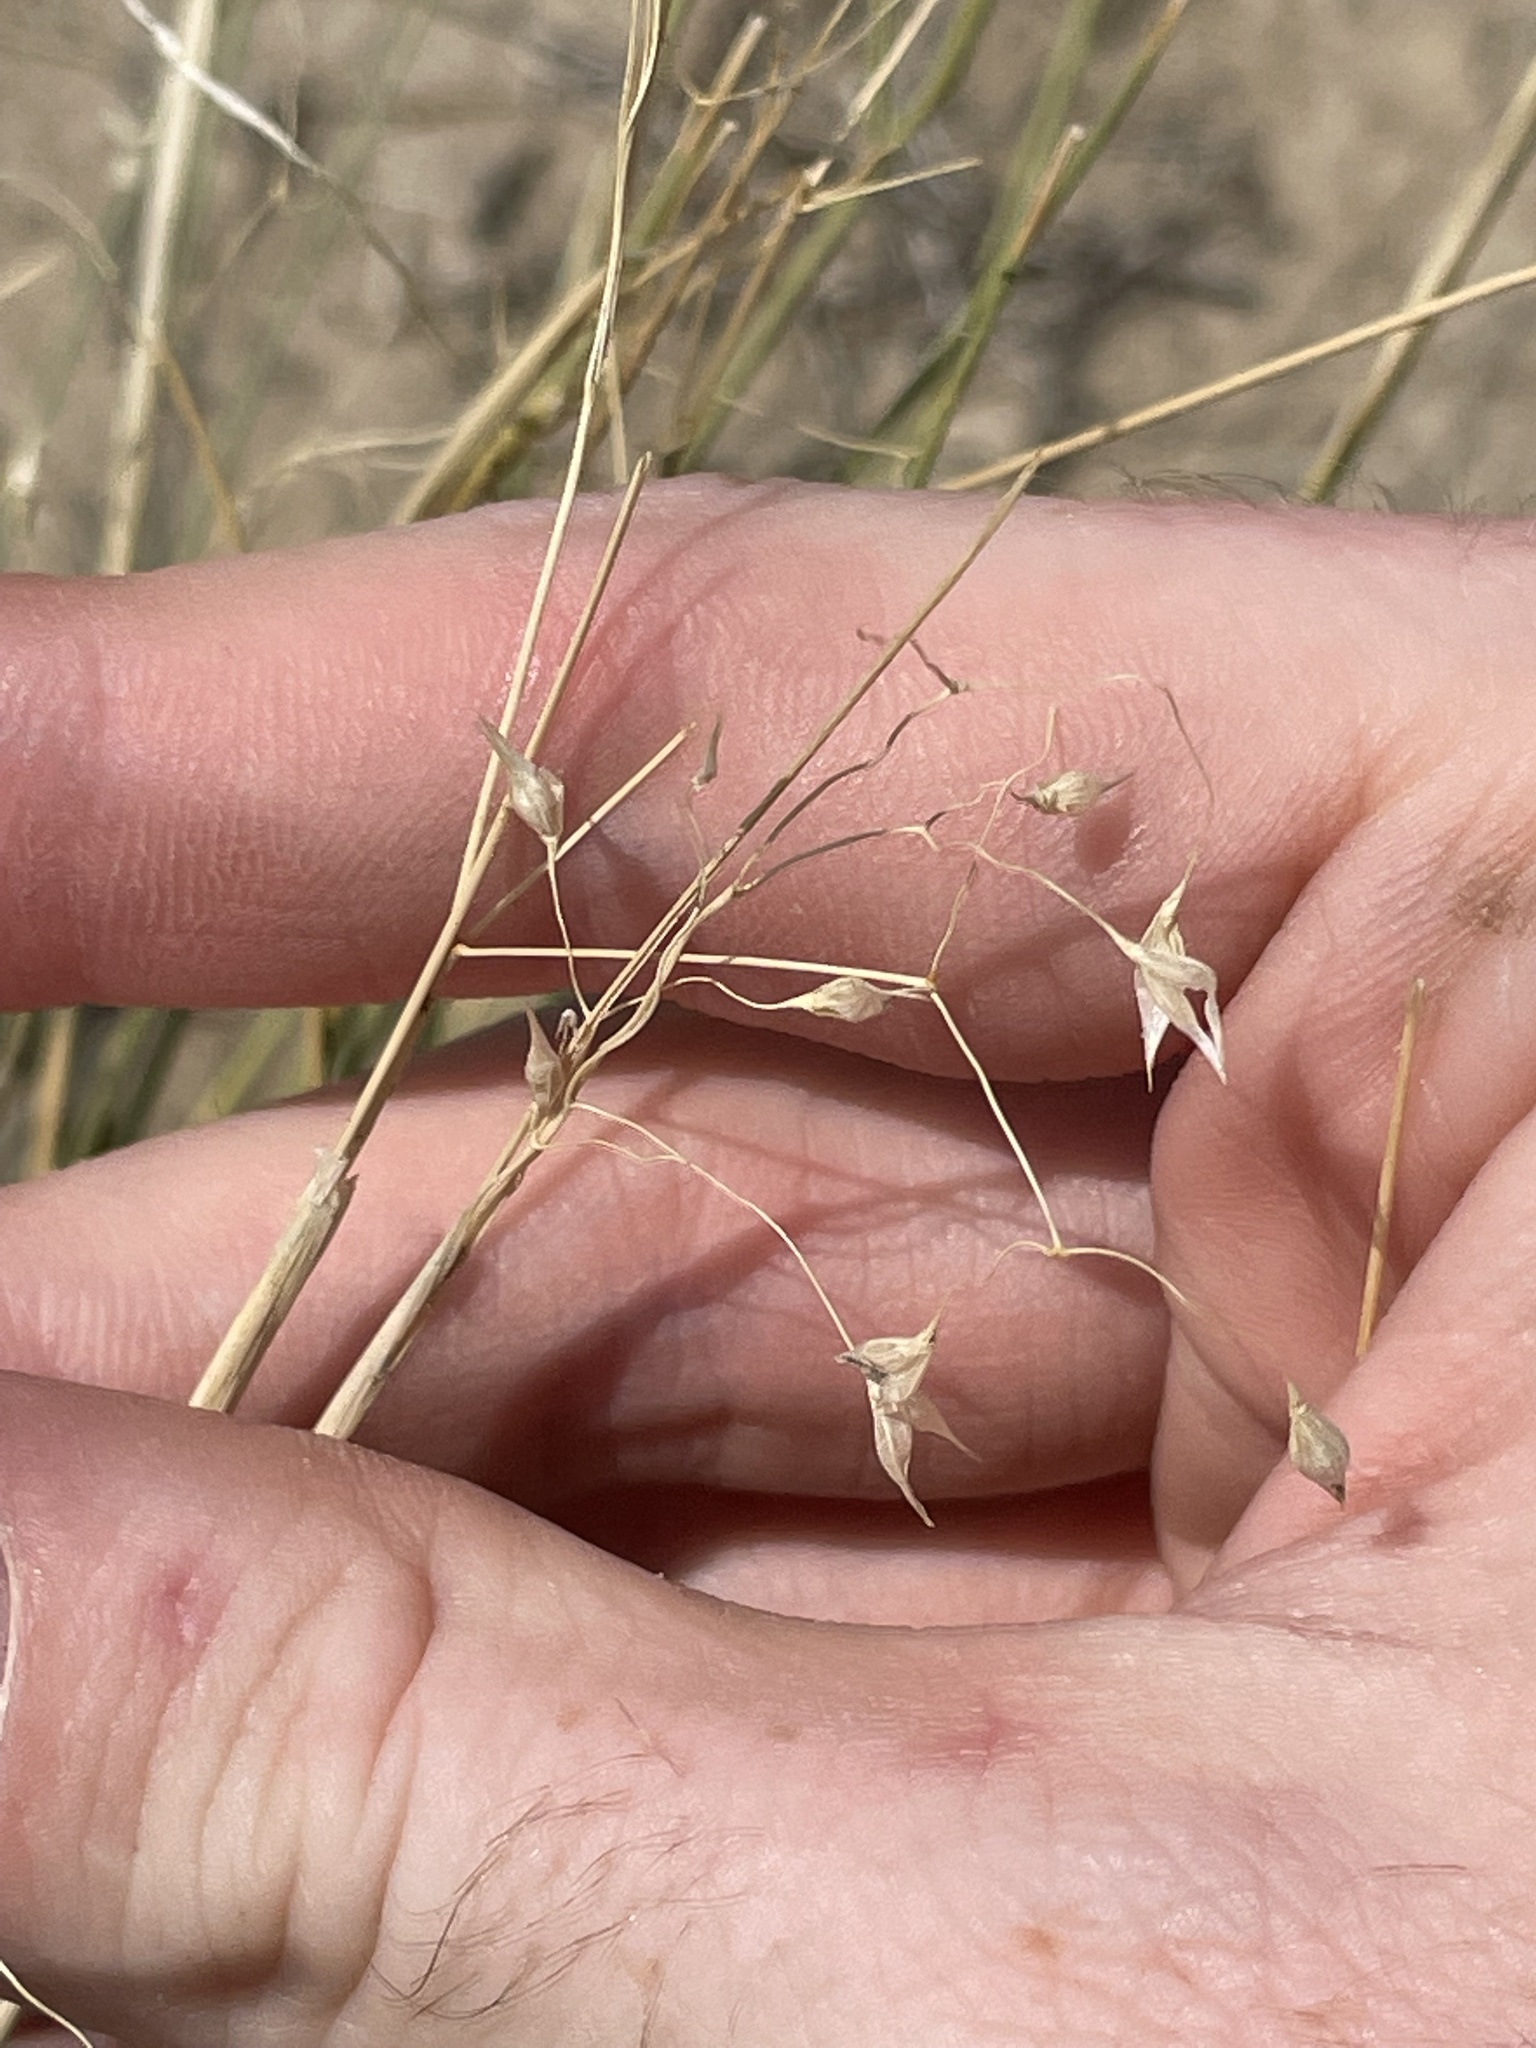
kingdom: Plantae
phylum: Tracheophyta
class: Liliopsida
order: Poales
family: Poaceae
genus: Eriocoma
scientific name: Eriocoma hymenoides
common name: Indian mountain ricegrass
